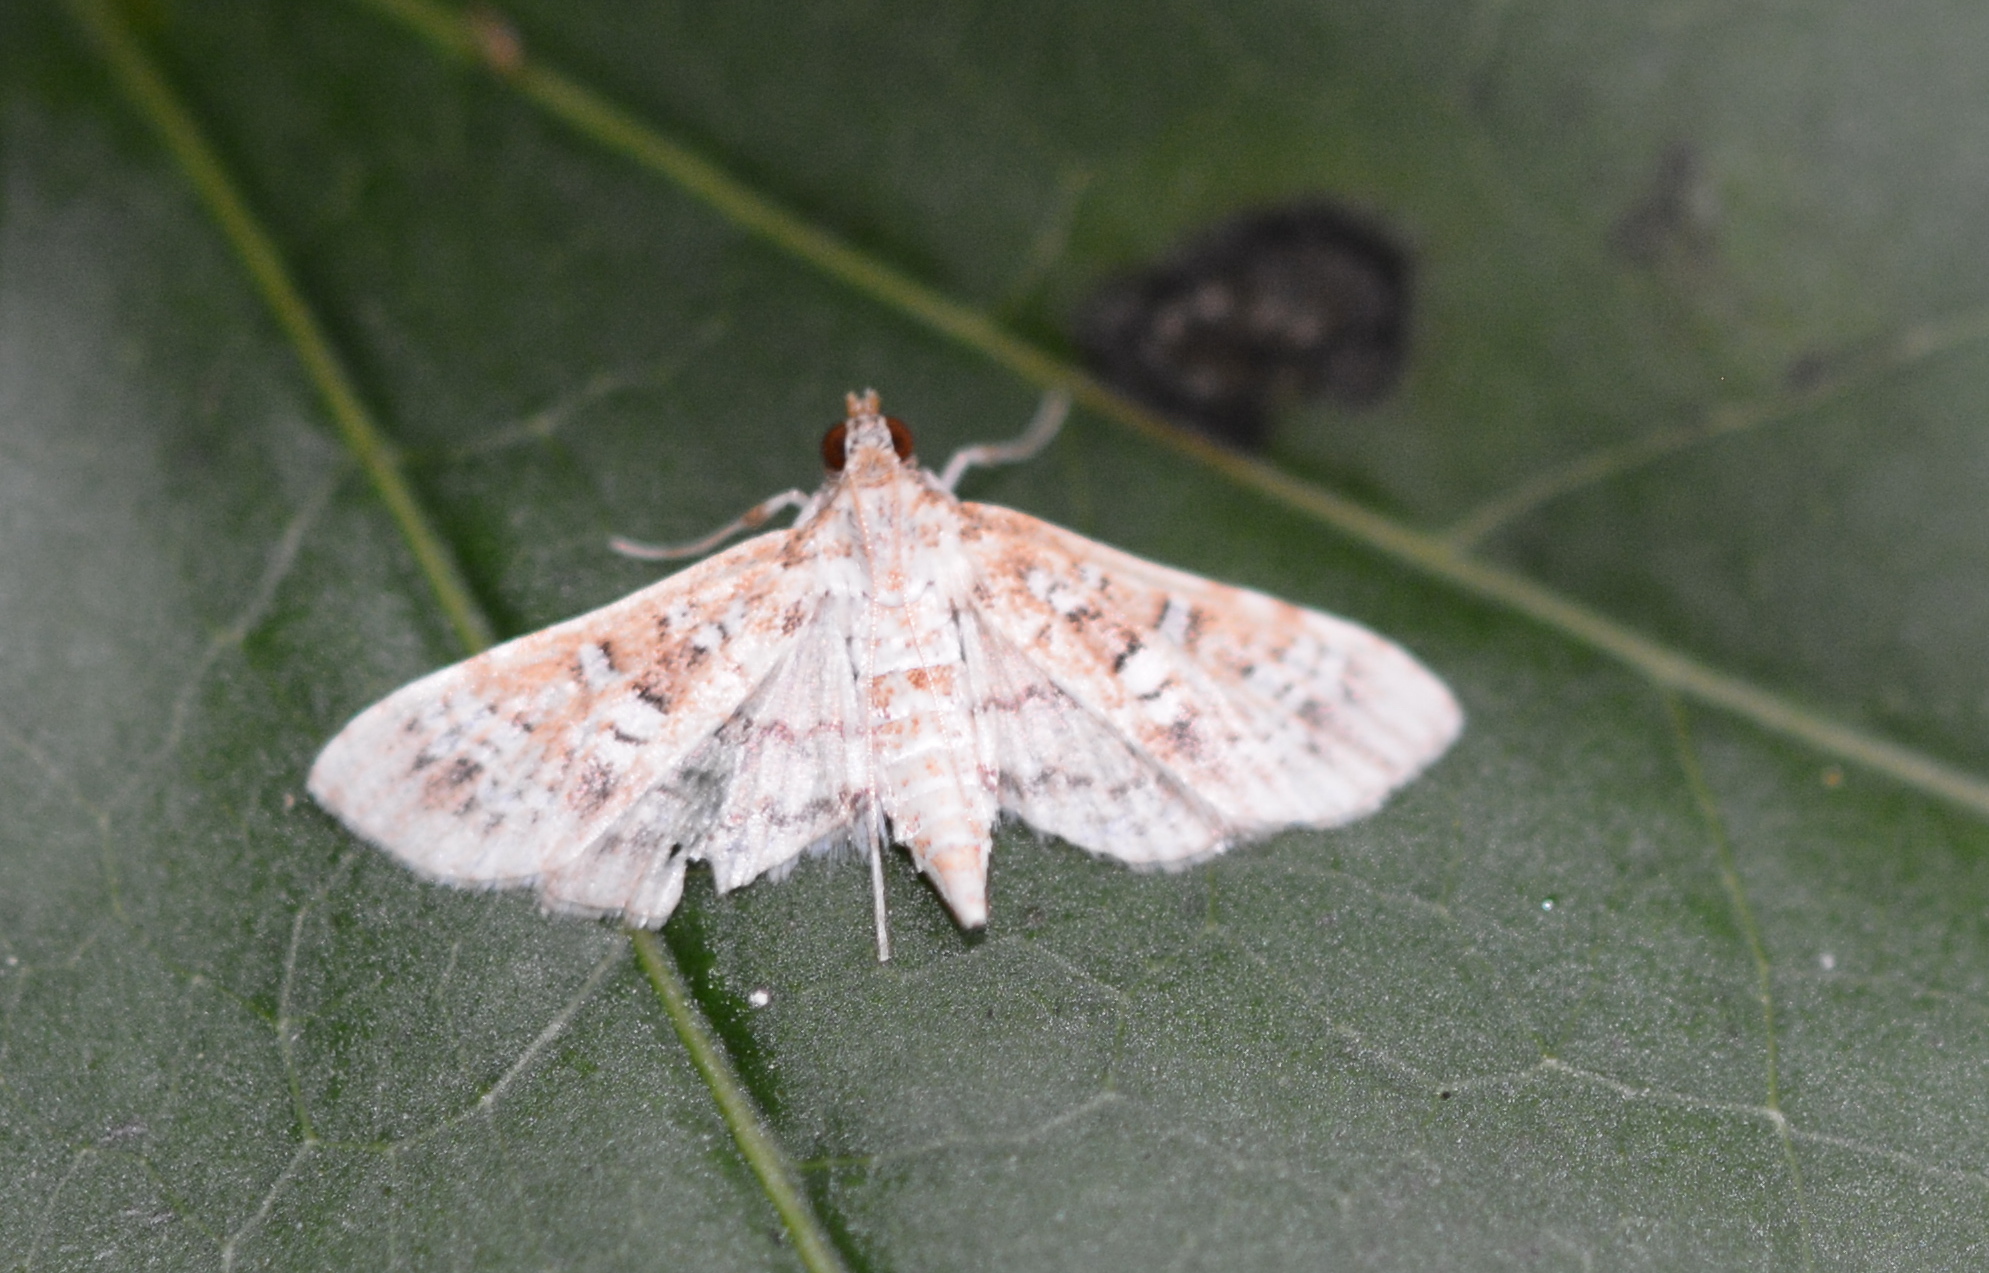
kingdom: Animalia
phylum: Arthropoda
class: Insecta
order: Lepidoptera
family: Crambidae
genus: Samea
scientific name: Samea multiplicalis
